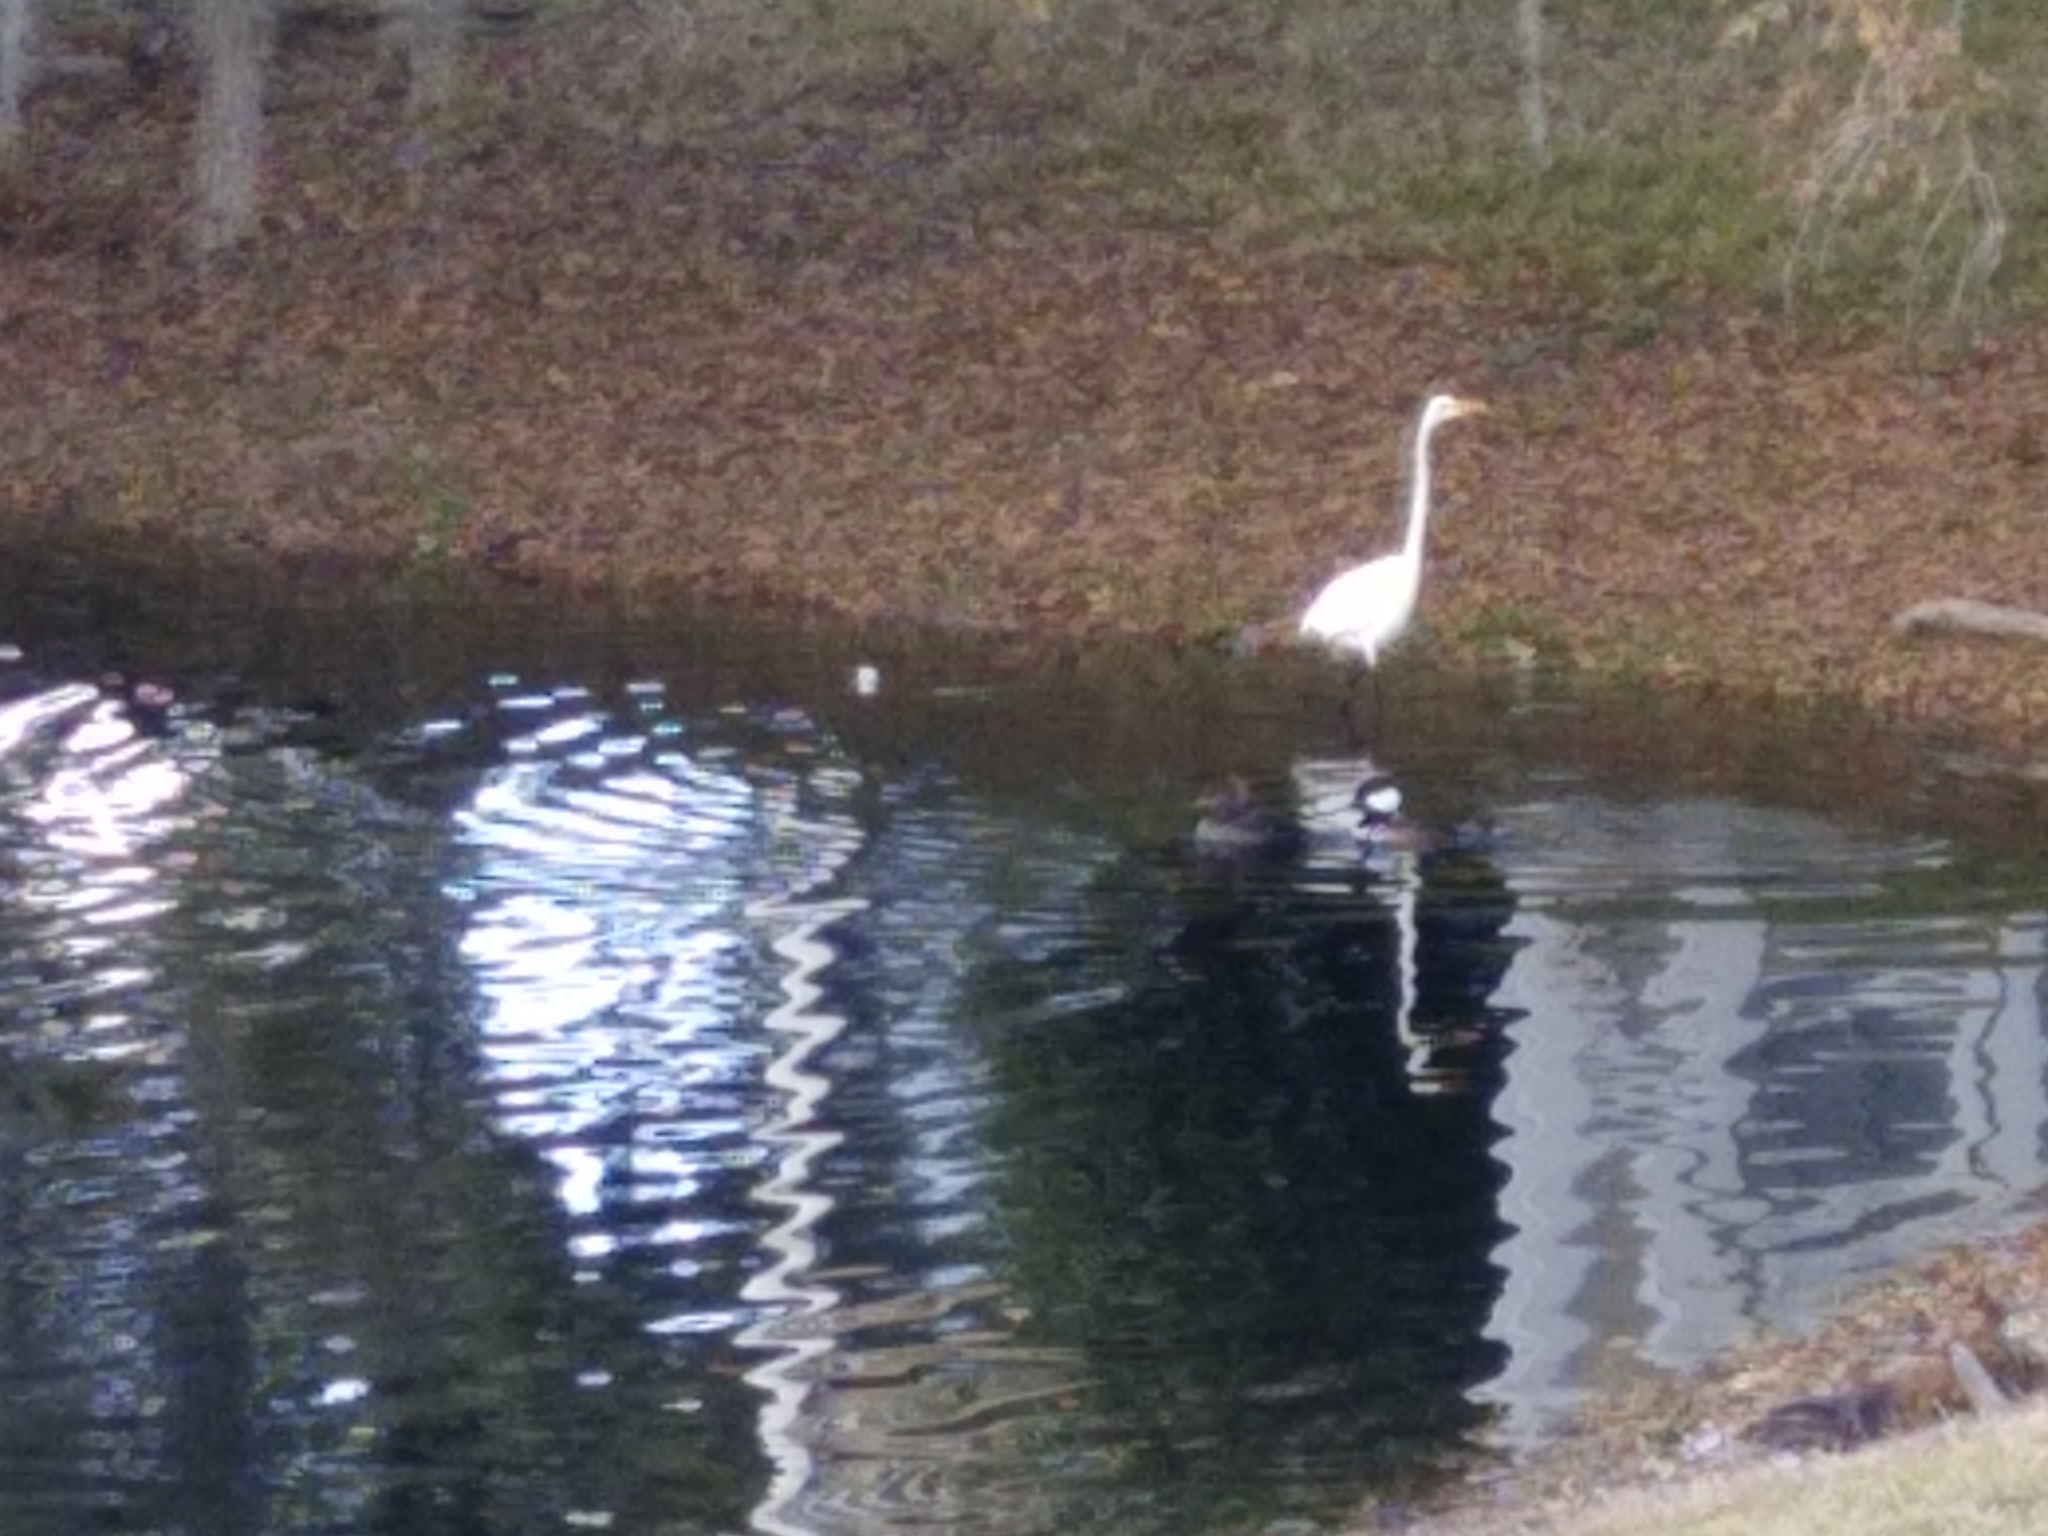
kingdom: Animalia
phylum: Chordata
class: Aves
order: Pelecaniformes
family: Ardeidae
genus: Ardea
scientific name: Ardea alba
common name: Great egret
